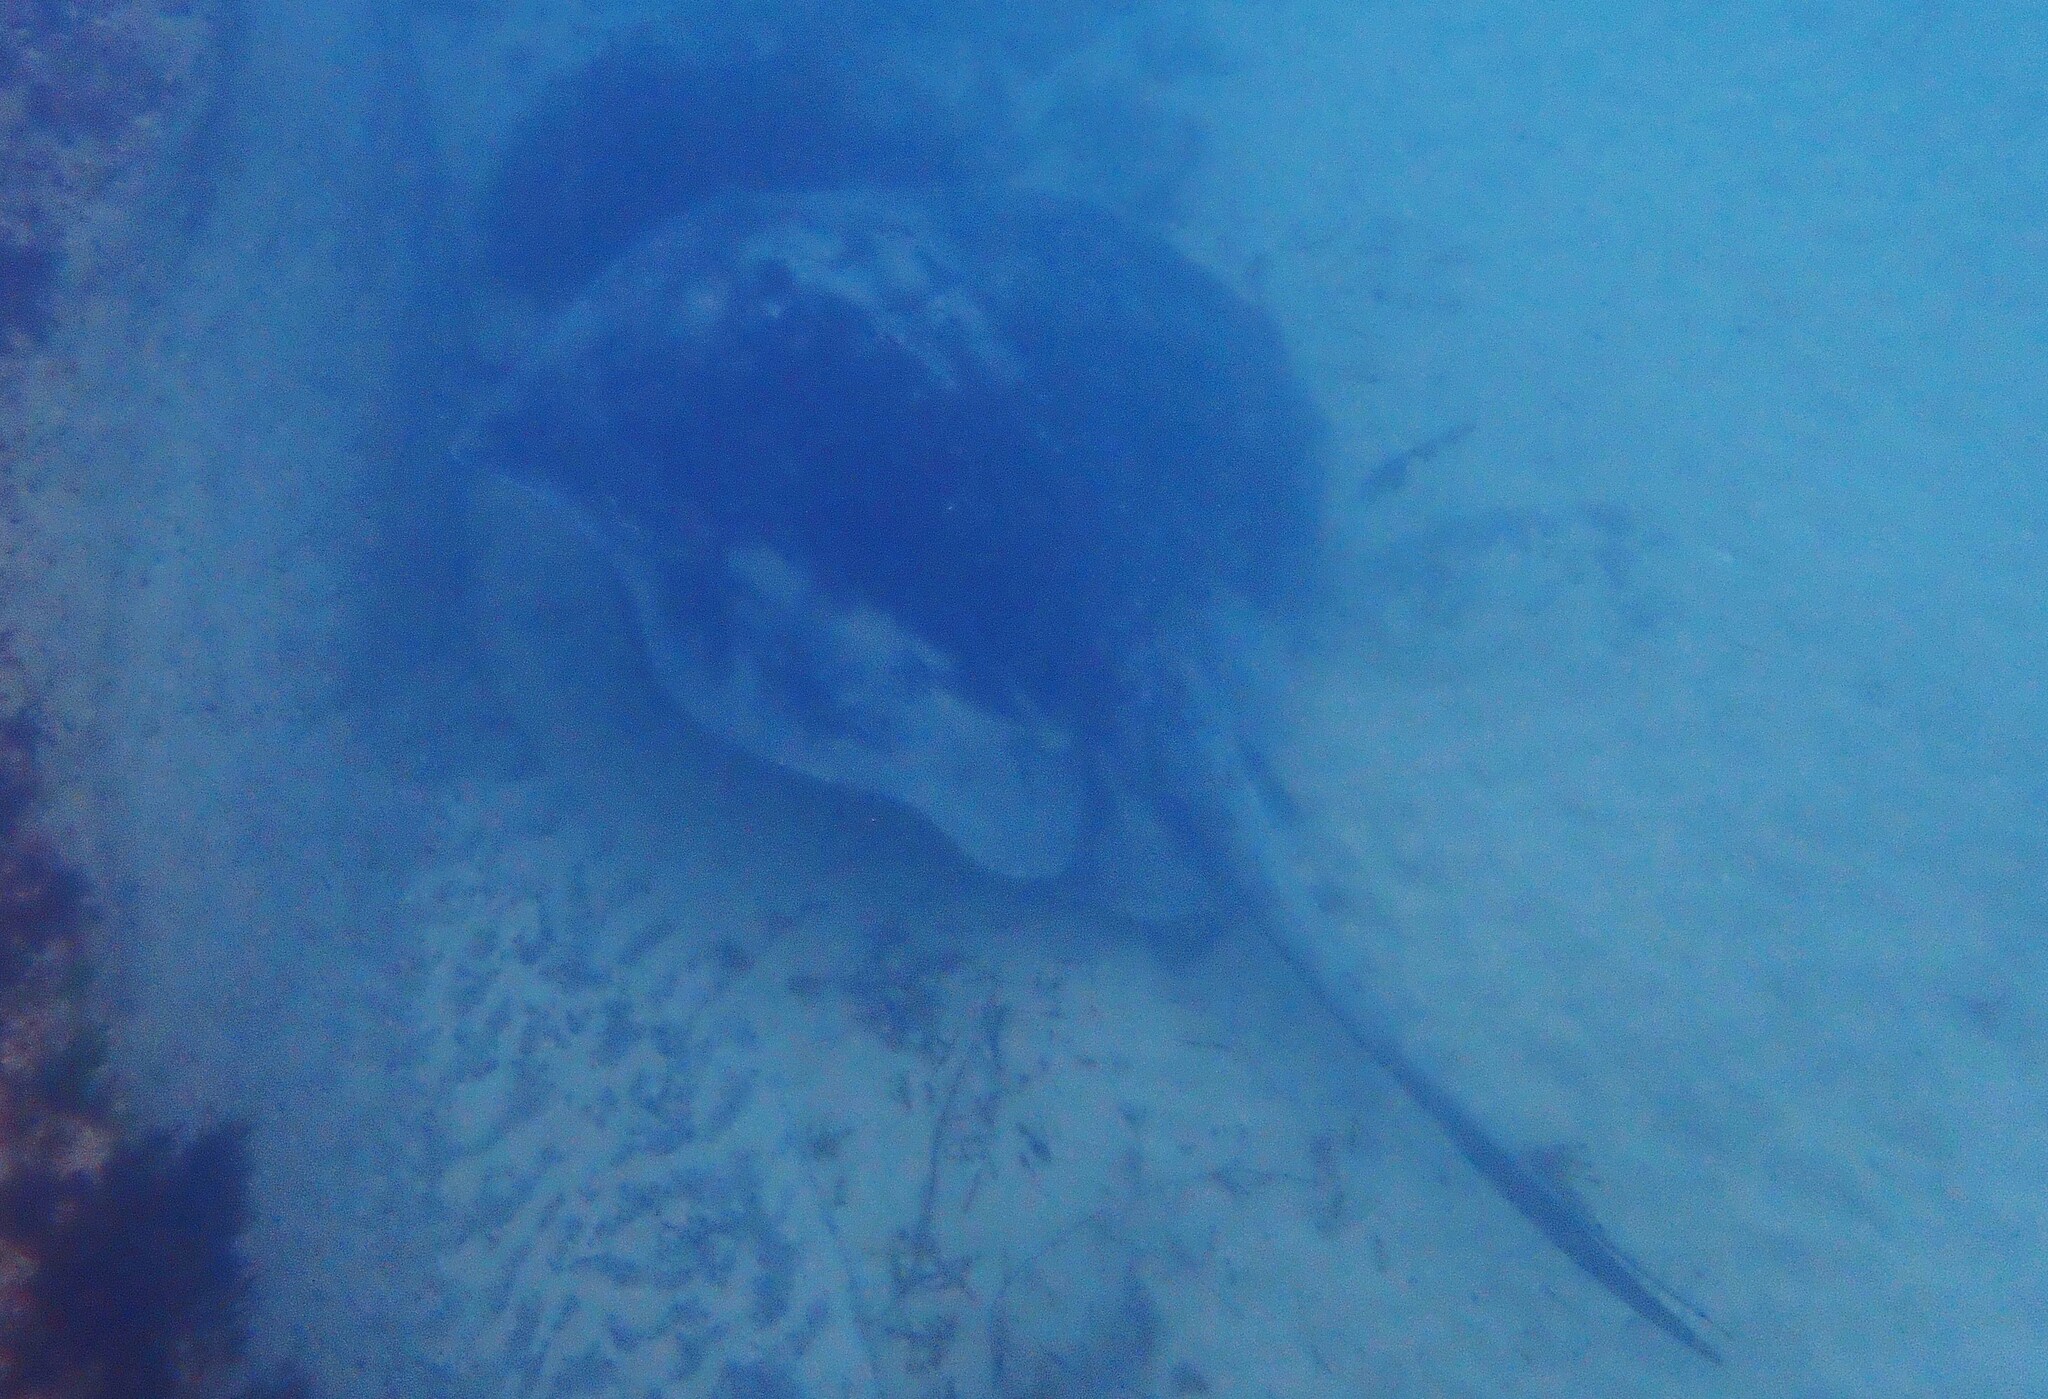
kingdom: Animalia
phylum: Chordata
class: Elasmobranchii
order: Myliobatiformes
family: Dasyatidae
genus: Bathytoshia
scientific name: Bathytoshia brevicaudata
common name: Short-tail stingray
